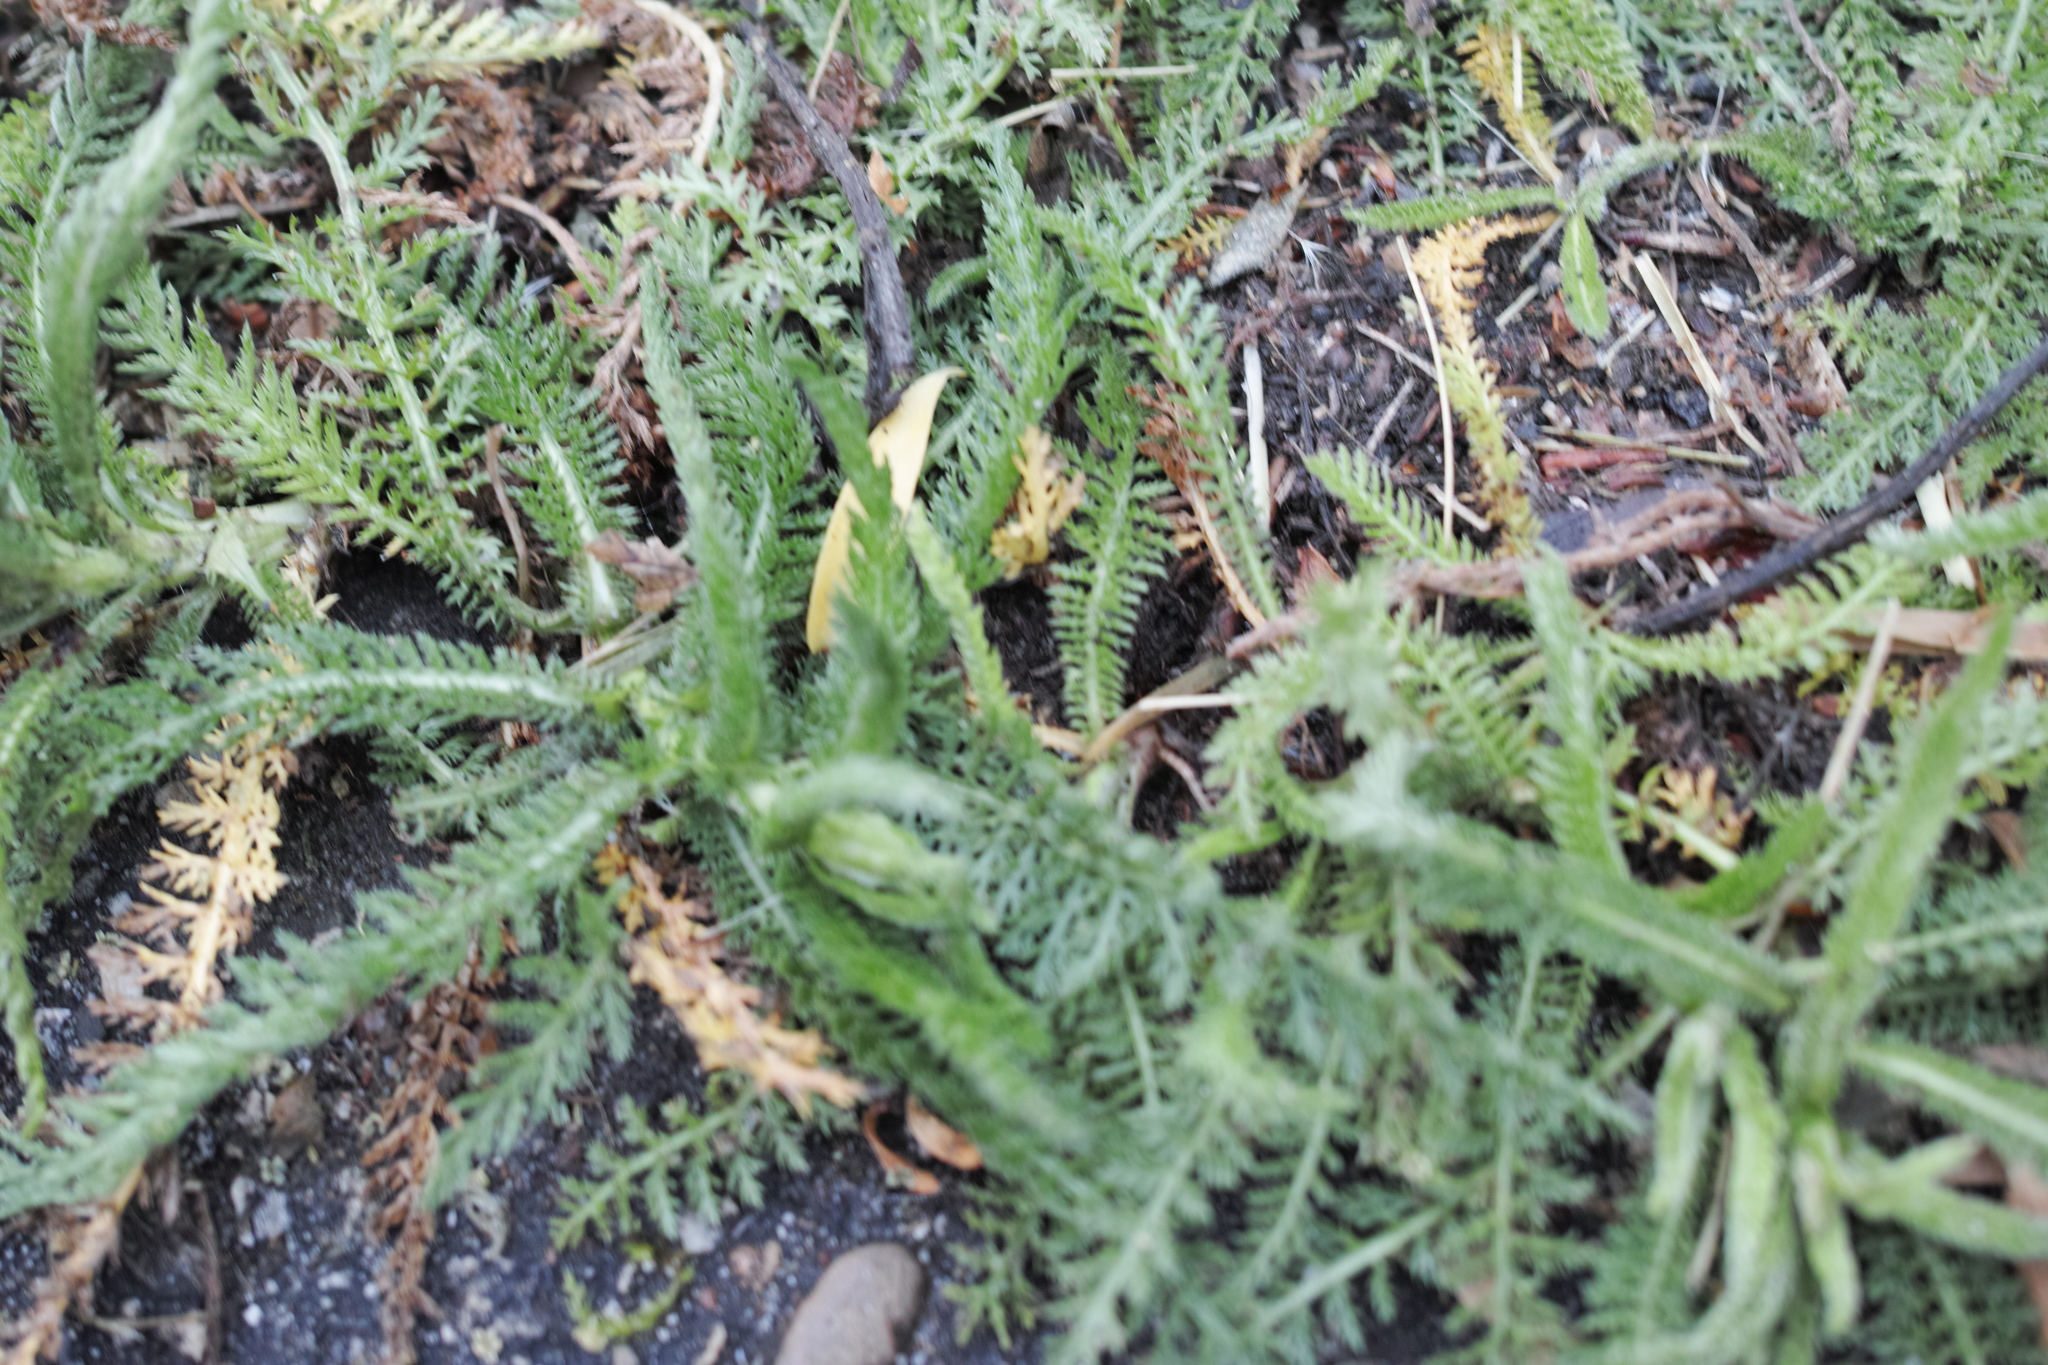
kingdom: Plantae
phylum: Tracheophyta
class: Magnoliopsida
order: Asterales
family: Asteraceae
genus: Achillea
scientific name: Achillea millefolium
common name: Yarrow
